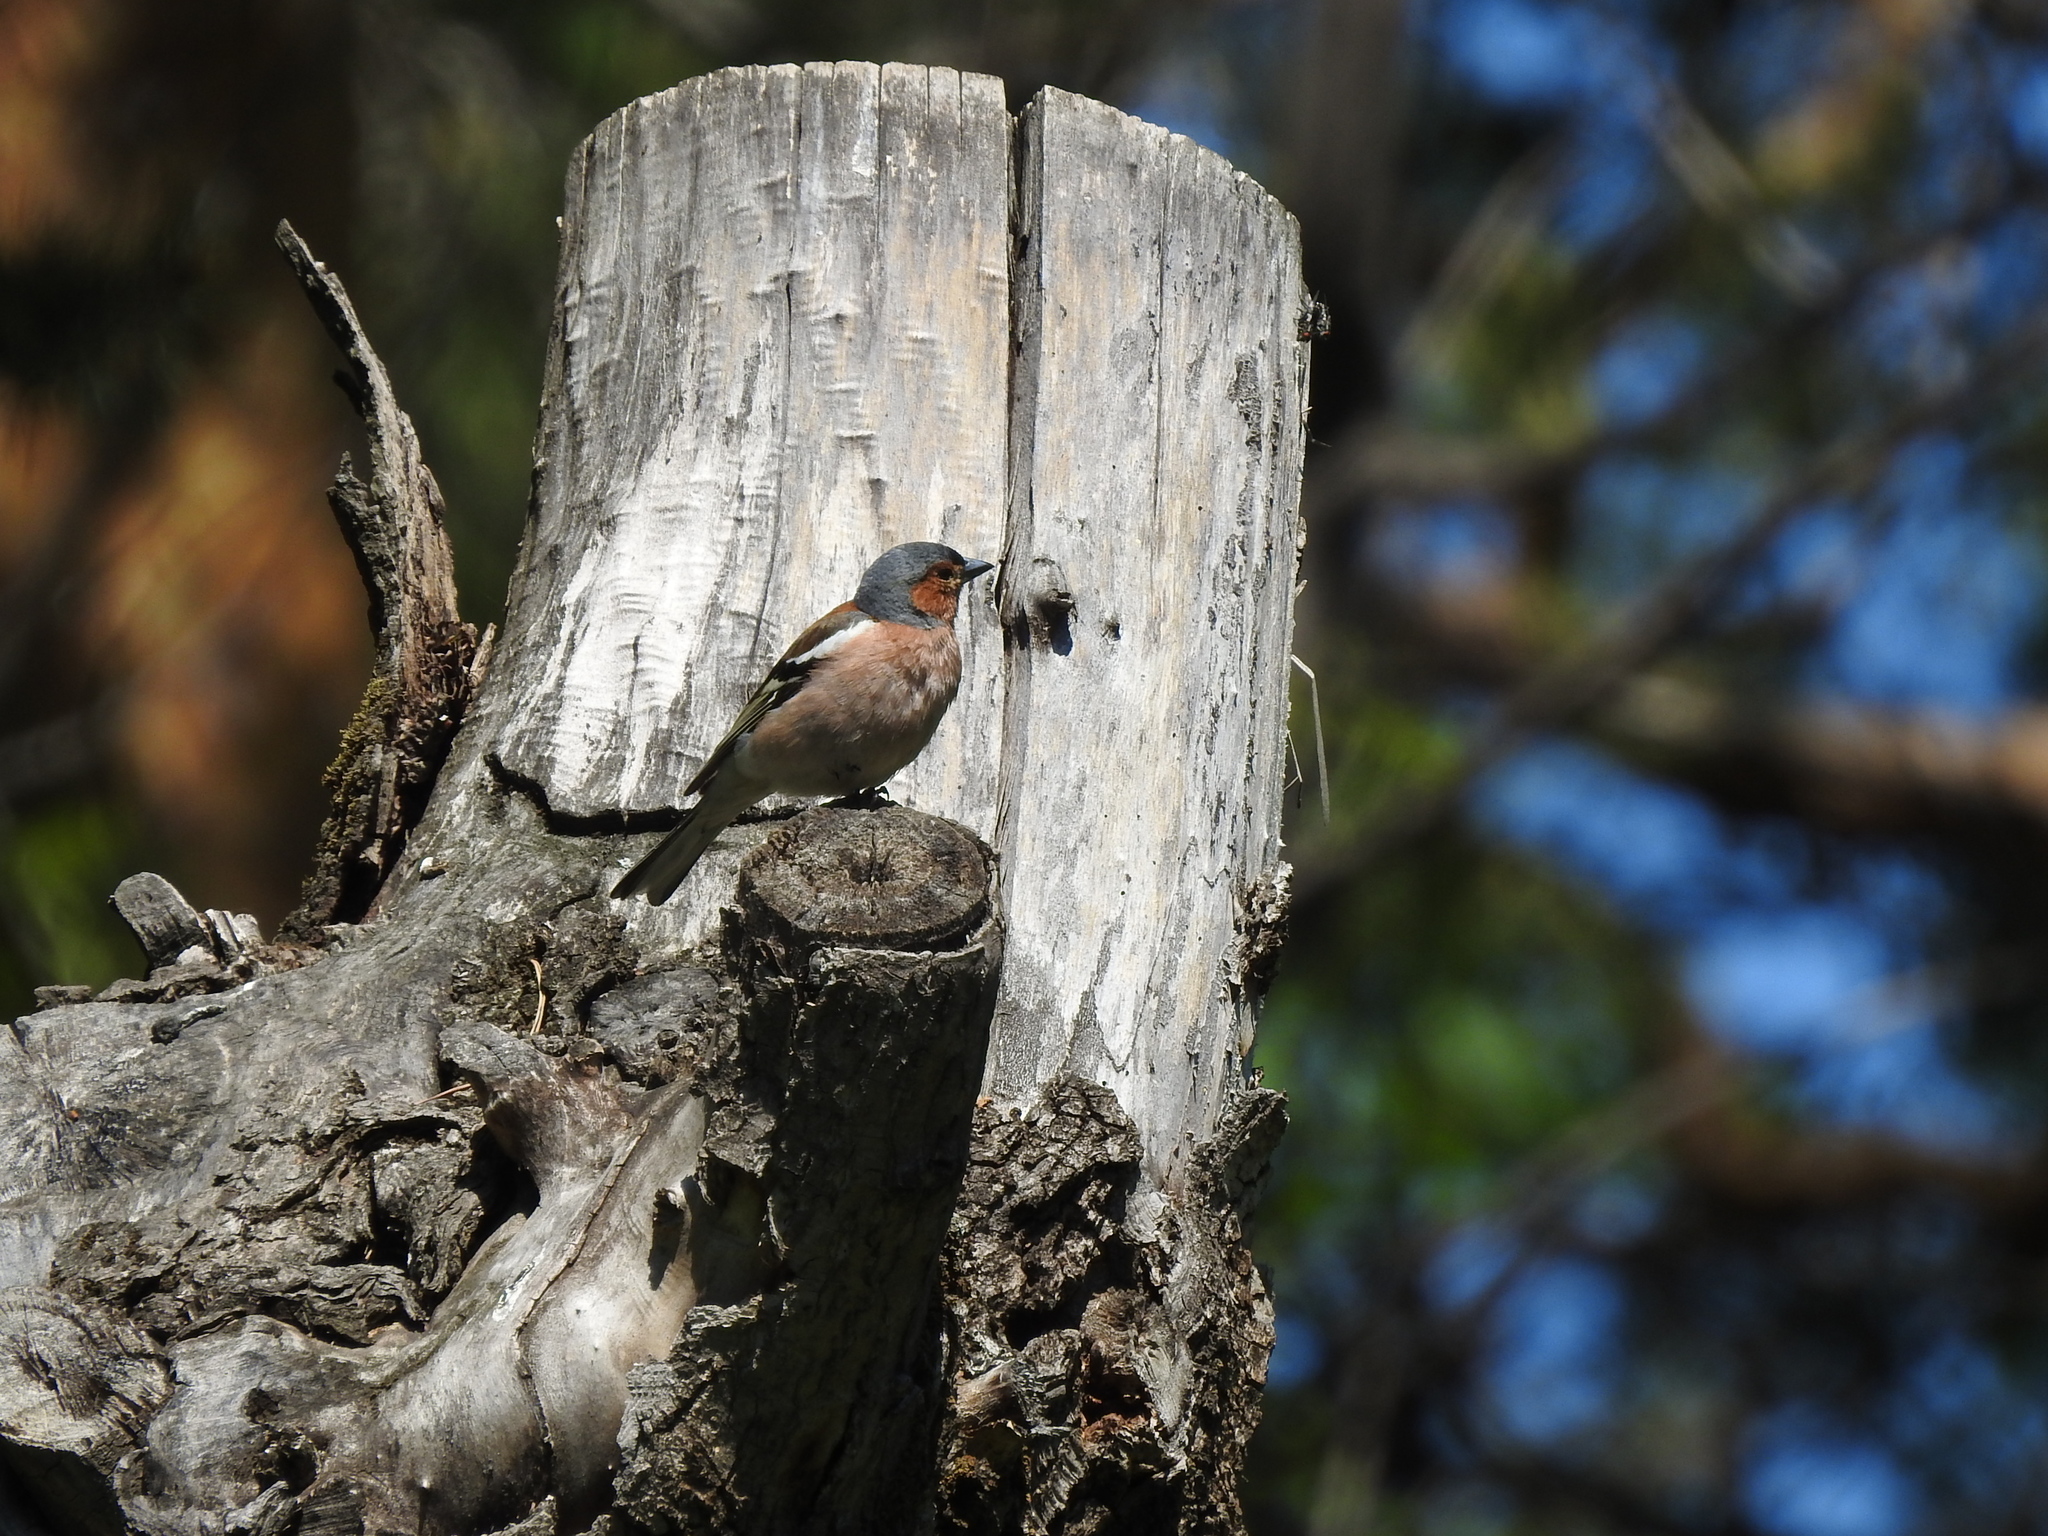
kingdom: Animalia
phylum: Chordata
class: Aves
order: Passeriformes
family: Fringillidae
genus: Fringilla
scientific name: Fringilla coelebs
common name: Common chaffinch
